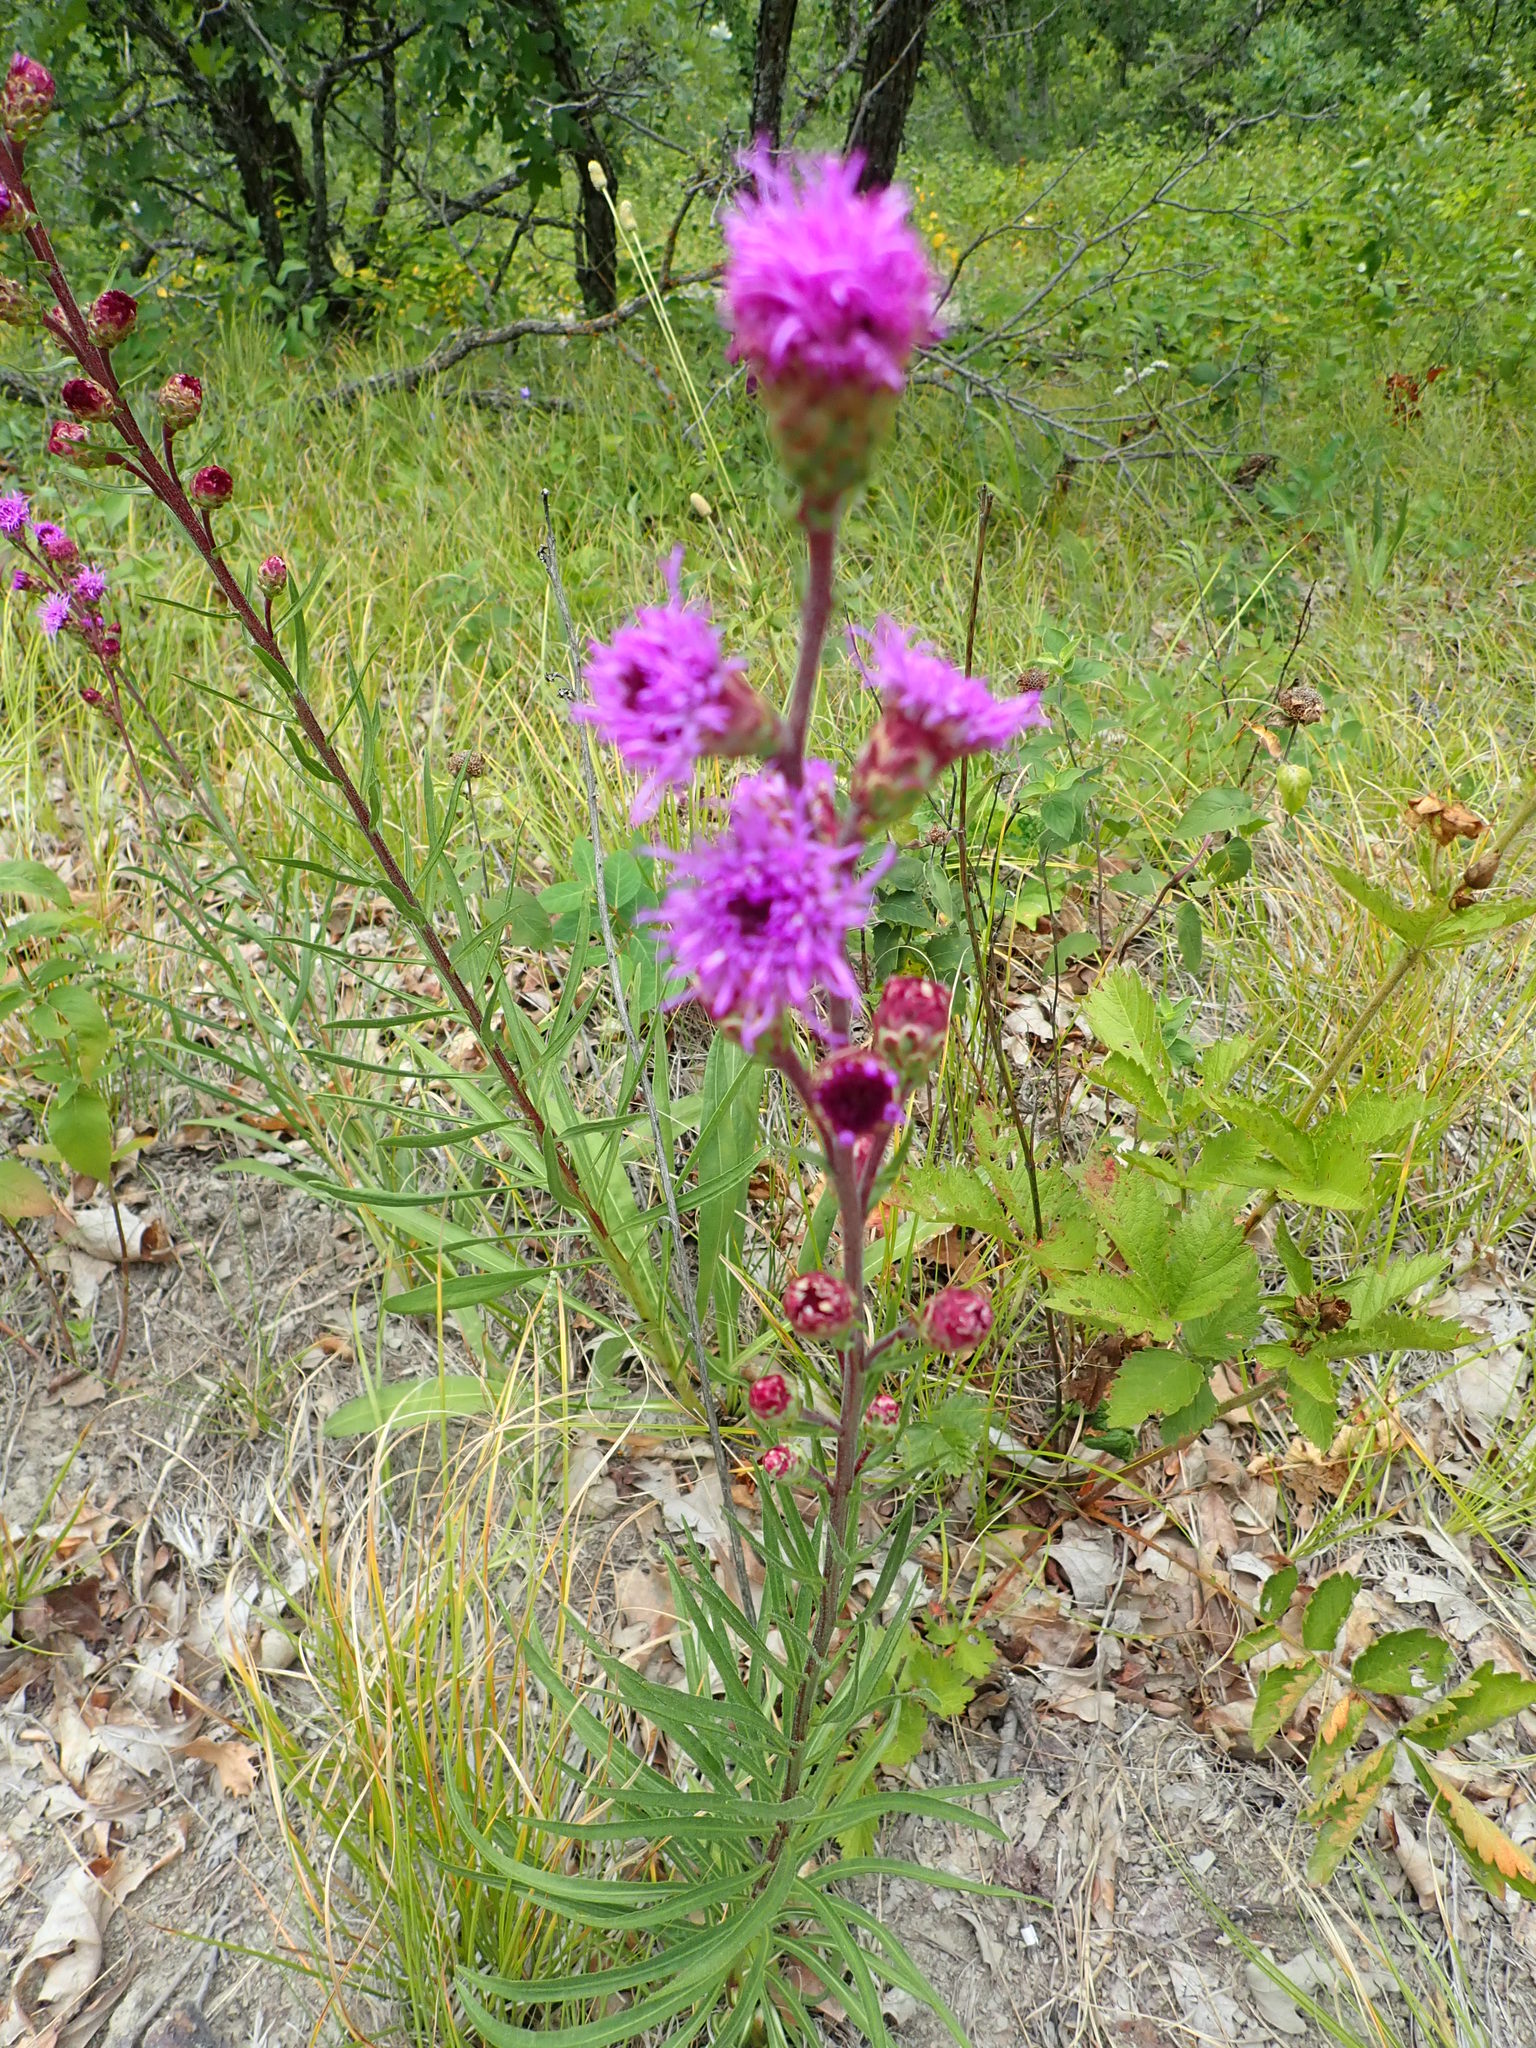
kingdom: Plantae
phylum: Tracheophyta
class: Magnoliopsida
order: Asterales
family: Asteraceae
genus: Liatris
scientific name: Liatris ligulistylis
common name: Northern plains gayfeather
